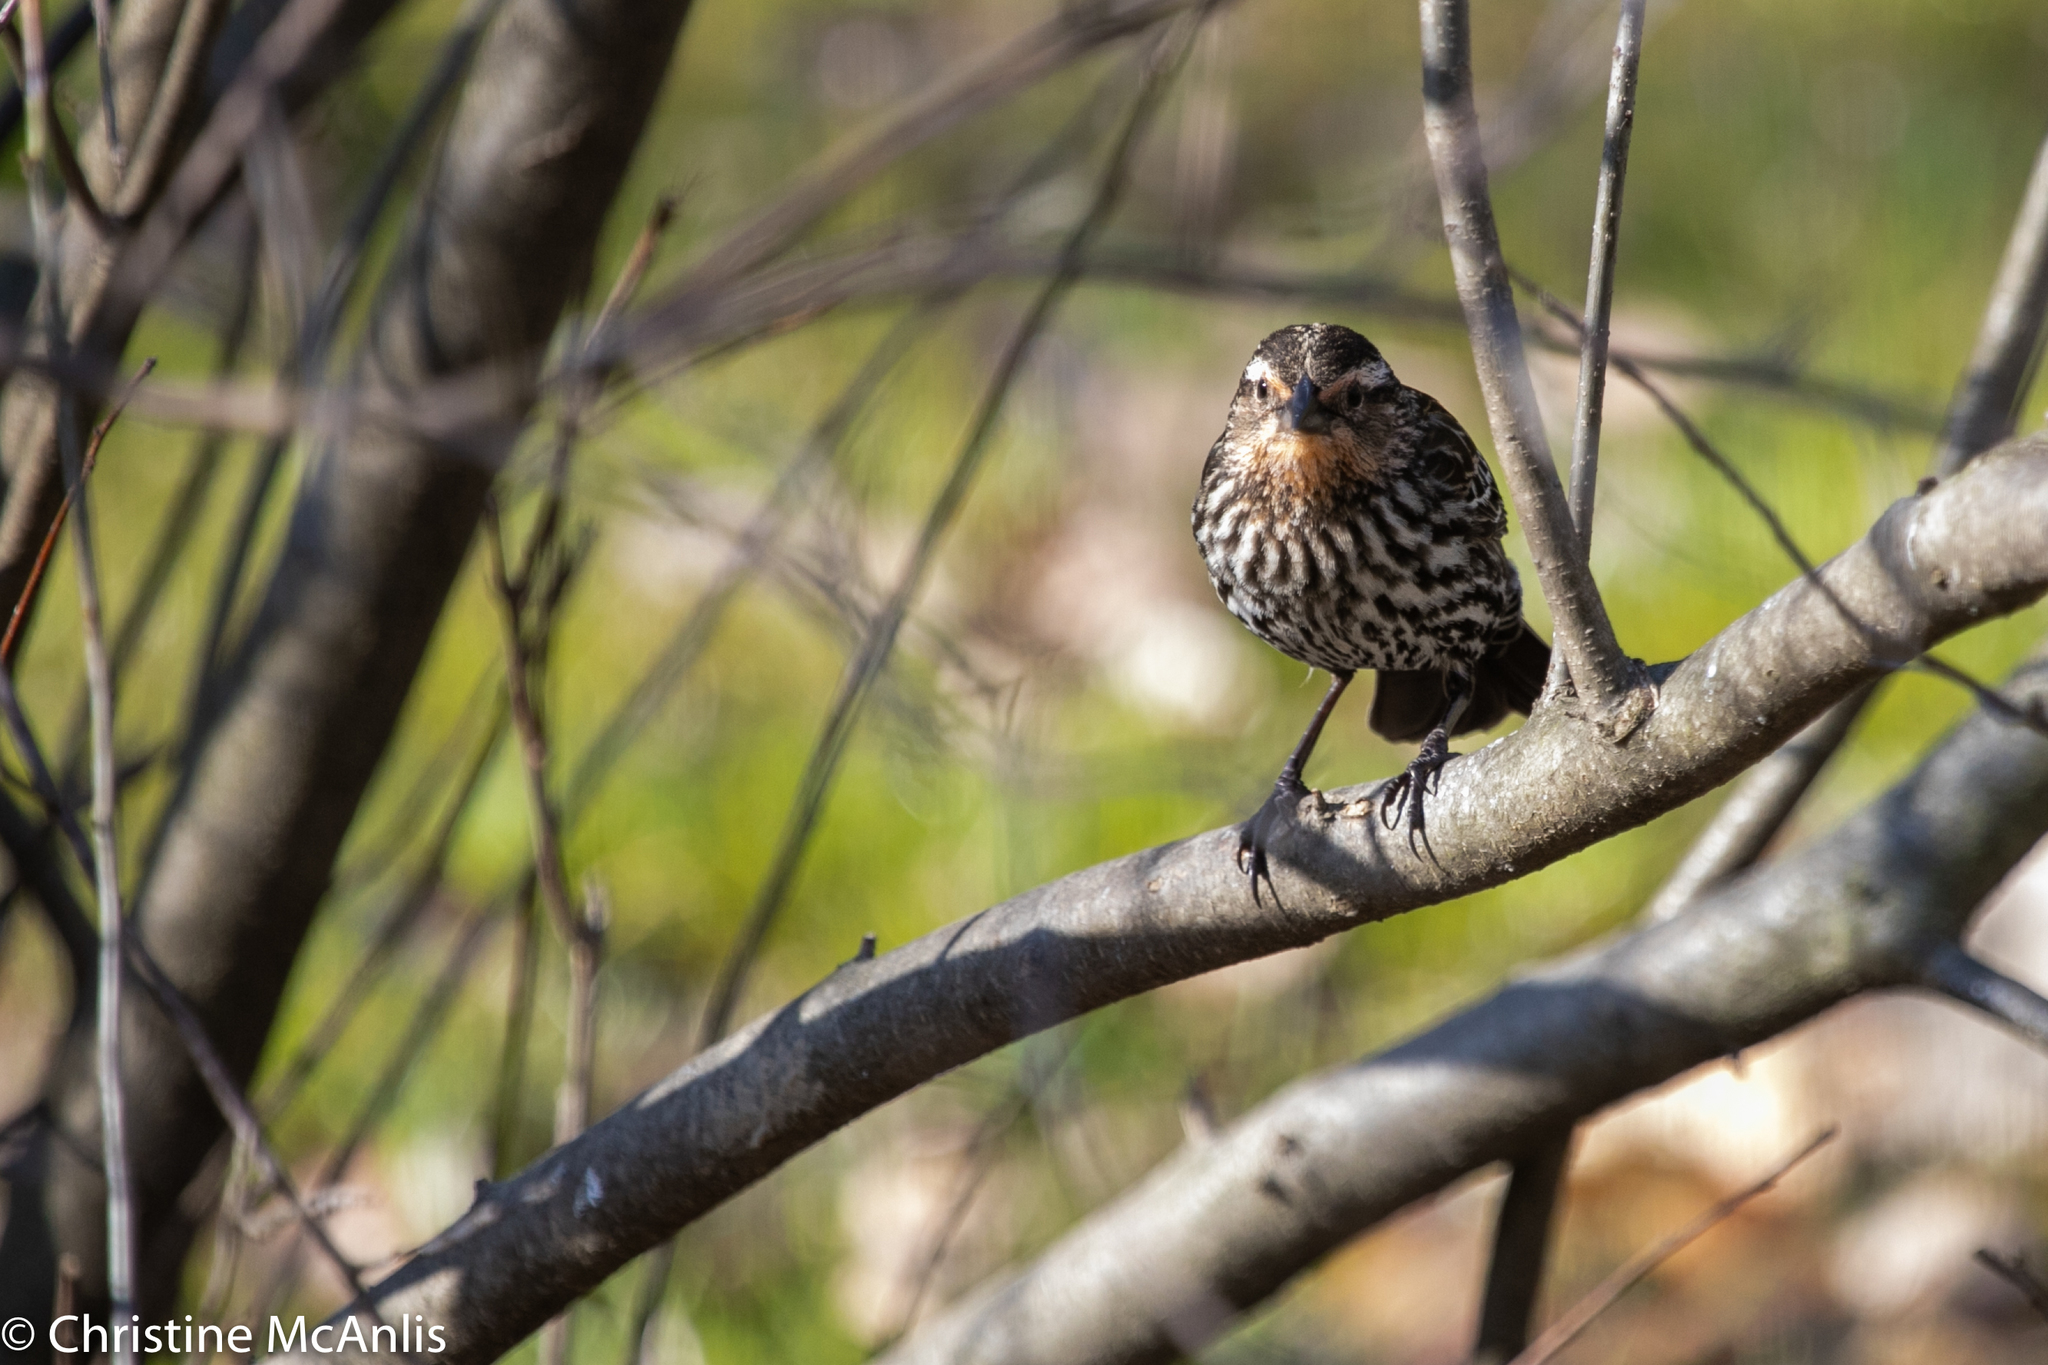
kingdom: Animalia
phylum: Chordata
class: Aves
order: Passeriformes
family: Icteridae
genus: Agelaius
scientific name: Agelaius phoeniceus
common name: Red-winged blackbird
